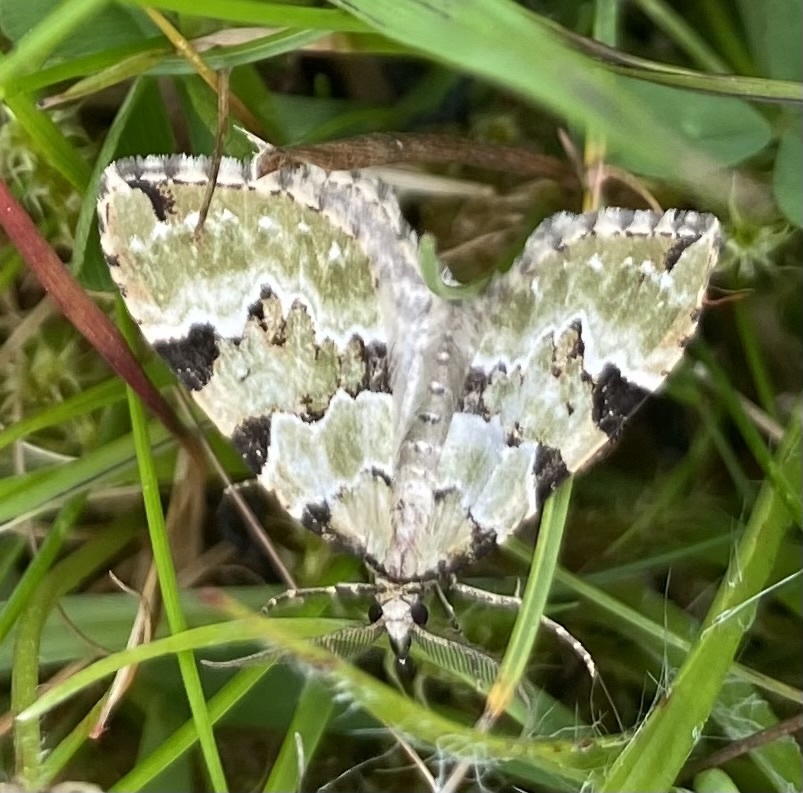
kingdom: Animalia
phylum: Arthropoda
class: Insecta
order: Lepidoptera
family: Geometridae
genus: Colostygia
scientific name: Colostygia pectinataria
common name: Green carpet
